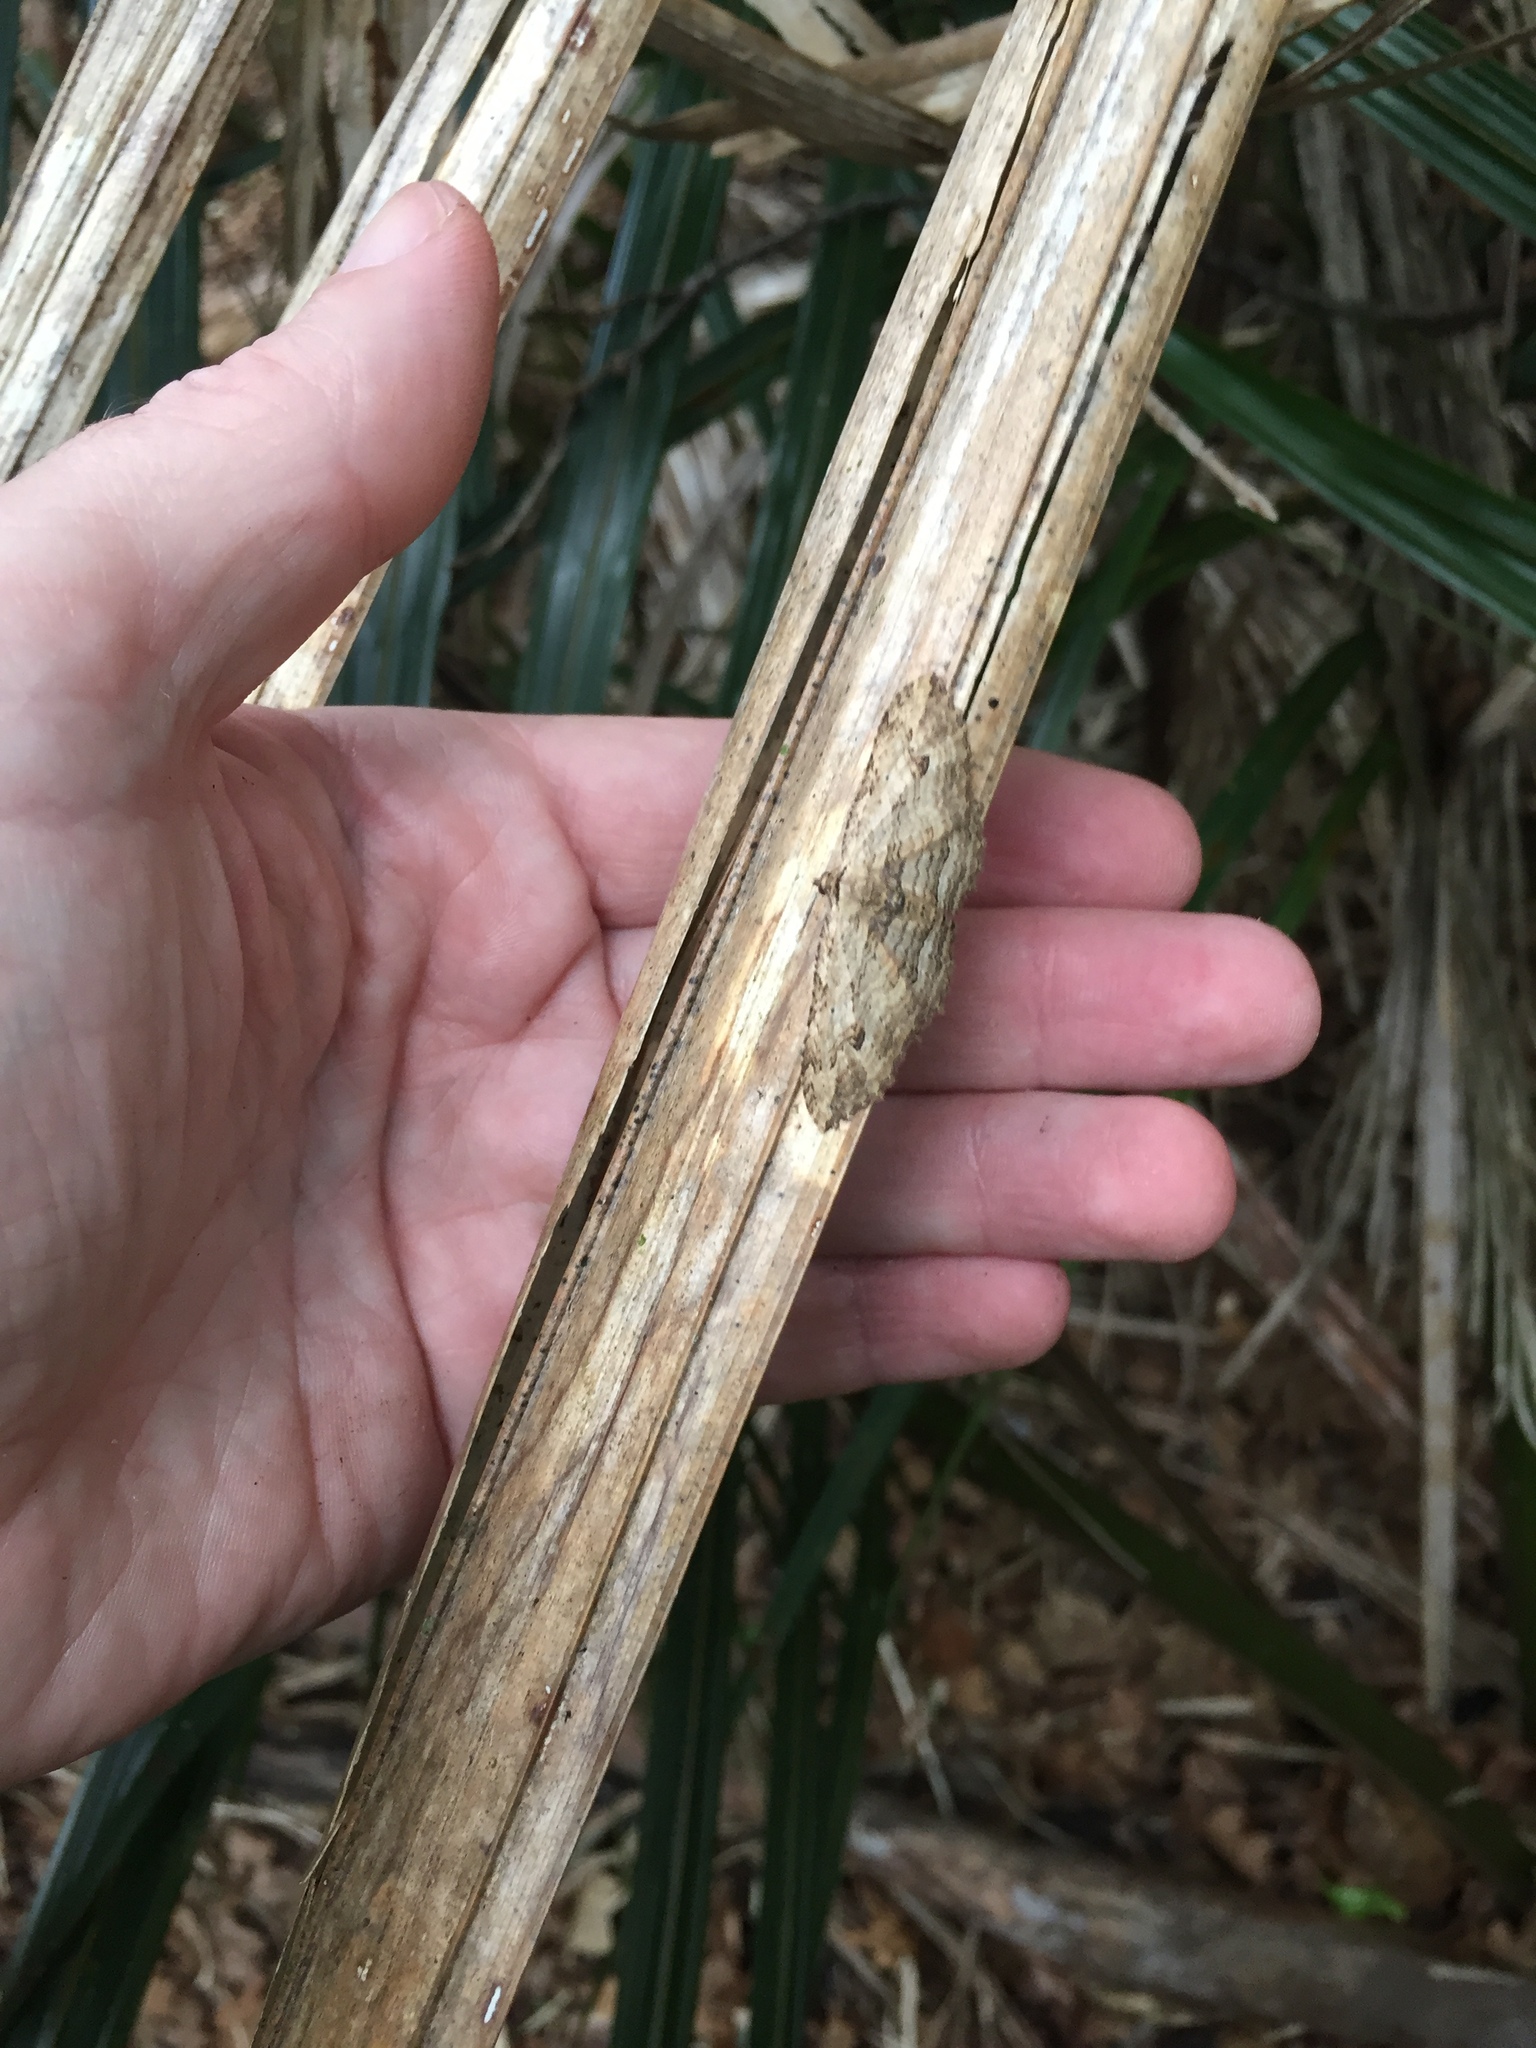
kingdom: Animalia
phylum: Arthropoda
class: Insecta
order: Lepidoptera
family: Geometridae
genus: Austrocidaria
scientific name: Austrocidaria bipartita
